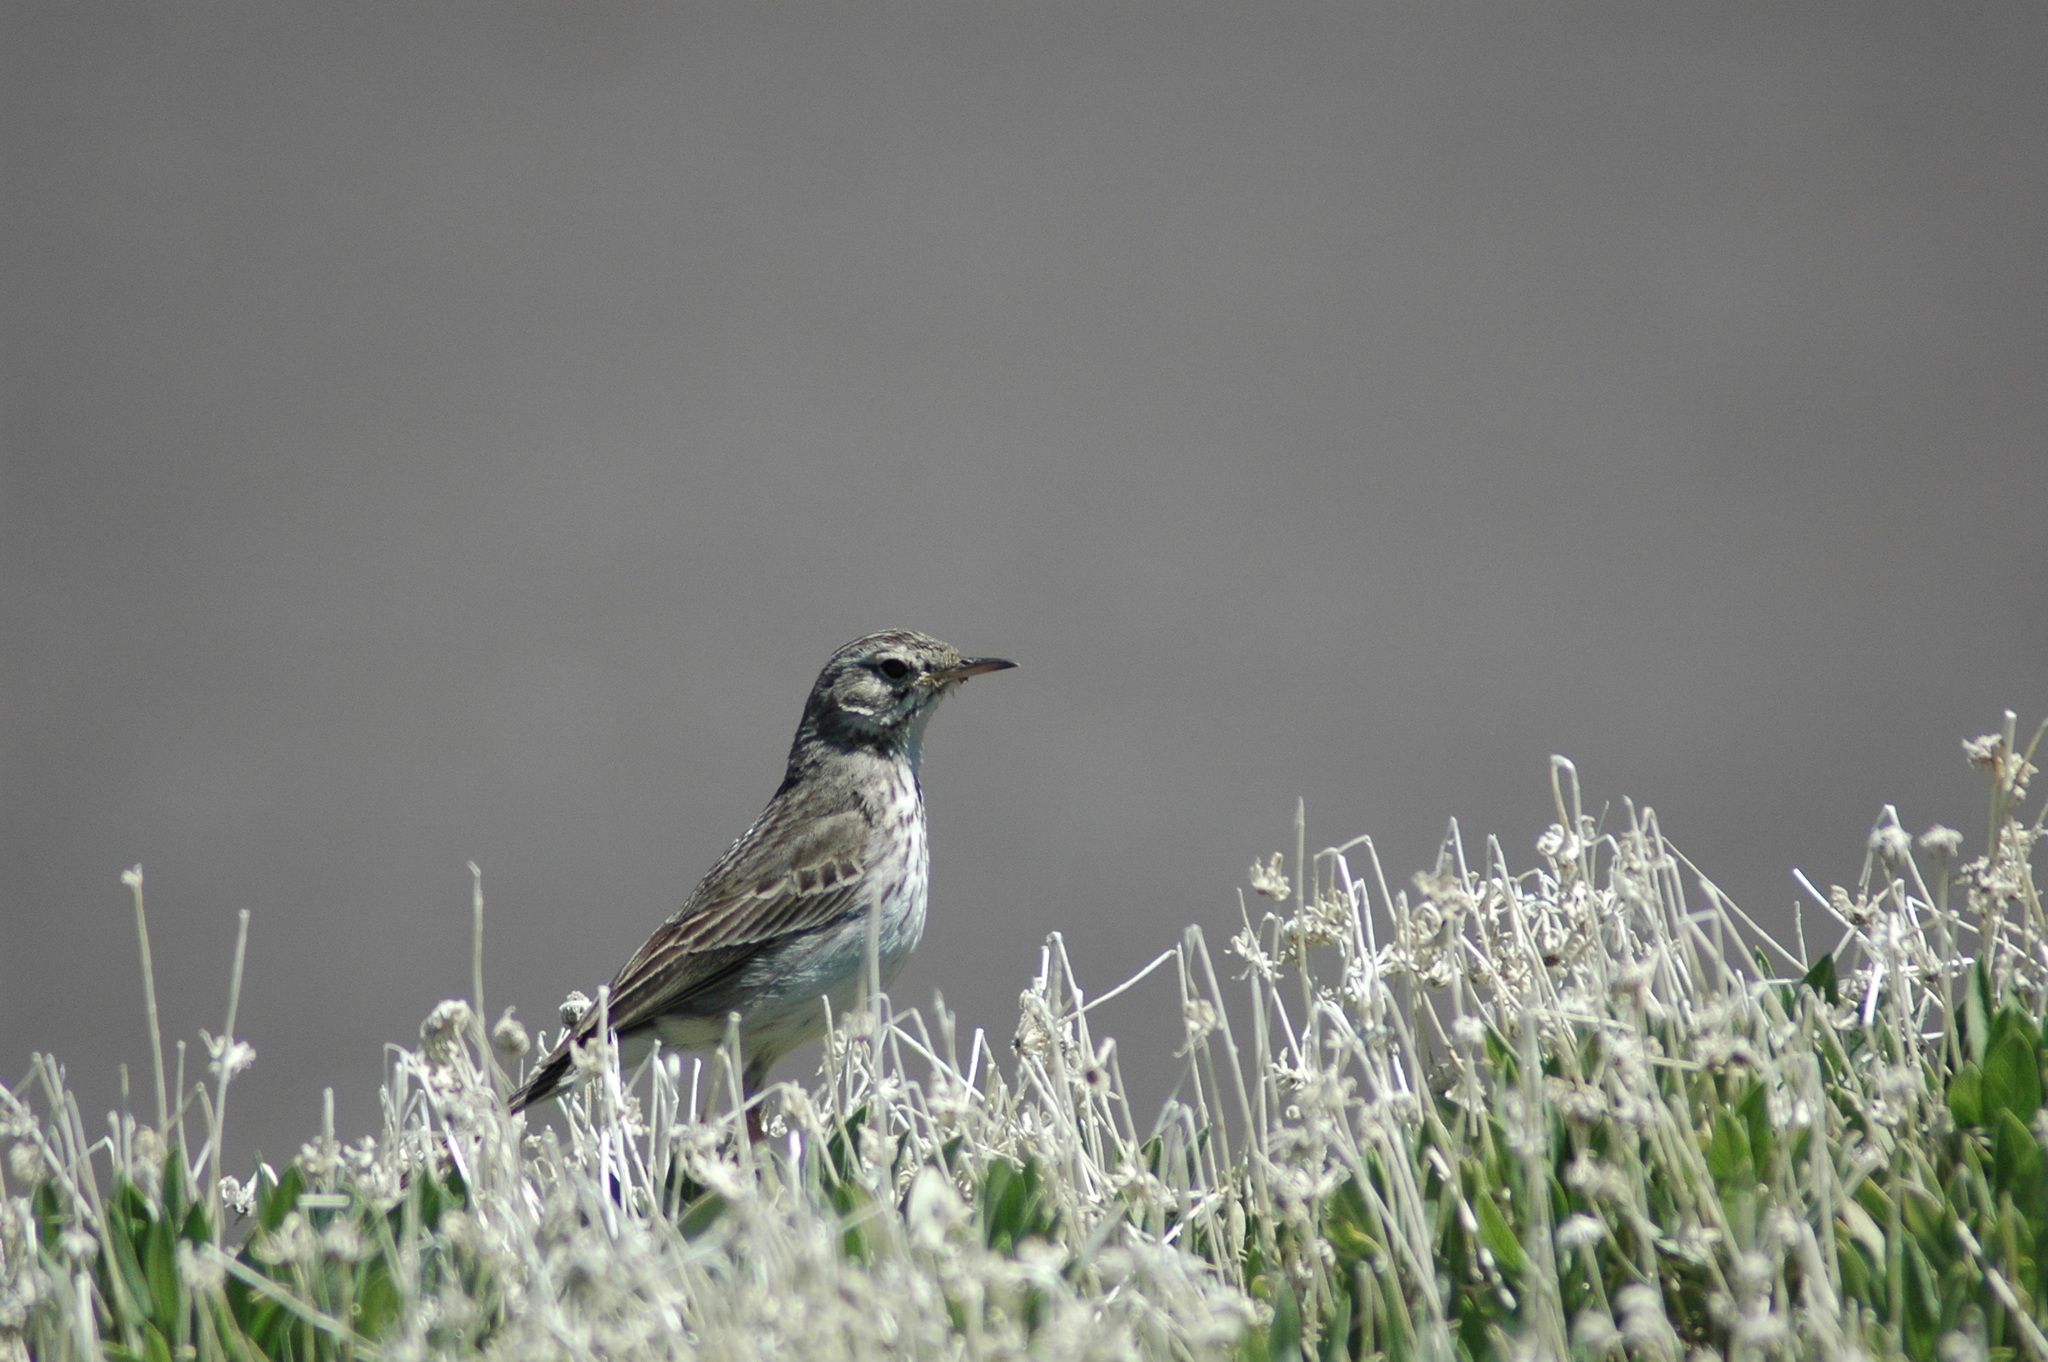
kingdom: Animalia
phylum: Chordata
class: Aves
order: Passeriformes
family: Motacillidae
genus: Anthus
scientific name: Anthus berthelotii
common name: Berthelot's pipit
